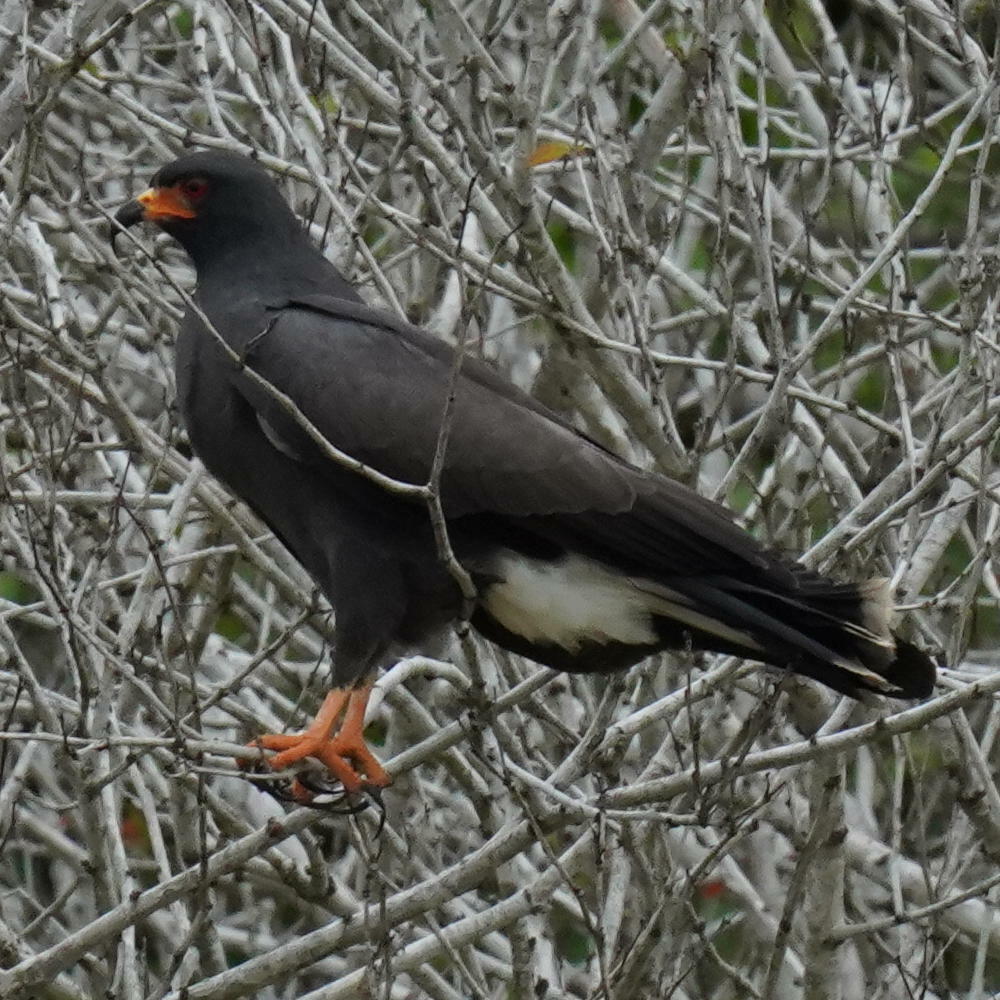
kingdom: Animalia
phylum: Chordata
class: Aves
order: Accipitriformes
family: Accipitridae
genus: Rostrhamus
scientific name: Rostrhamus sociabilis
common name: Snail kite
